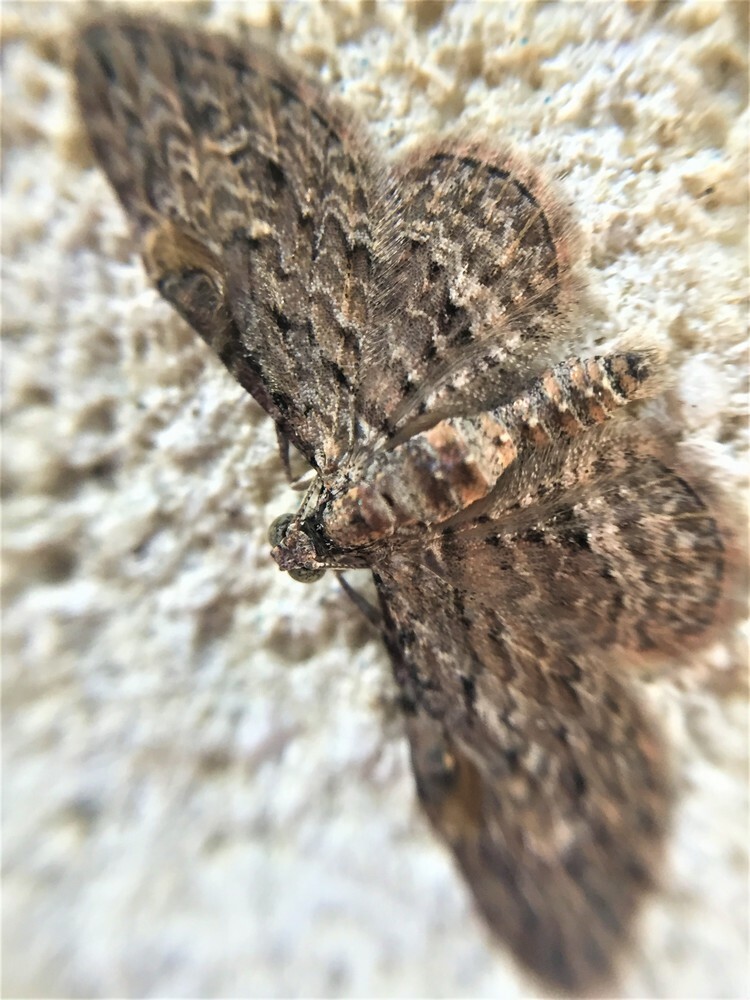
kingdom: Animalia
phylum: Arthropoda
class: Insecta
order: Lepidoptera
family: Geometridae
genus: Chloroclystis
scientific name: Chloroclystis insigillata
